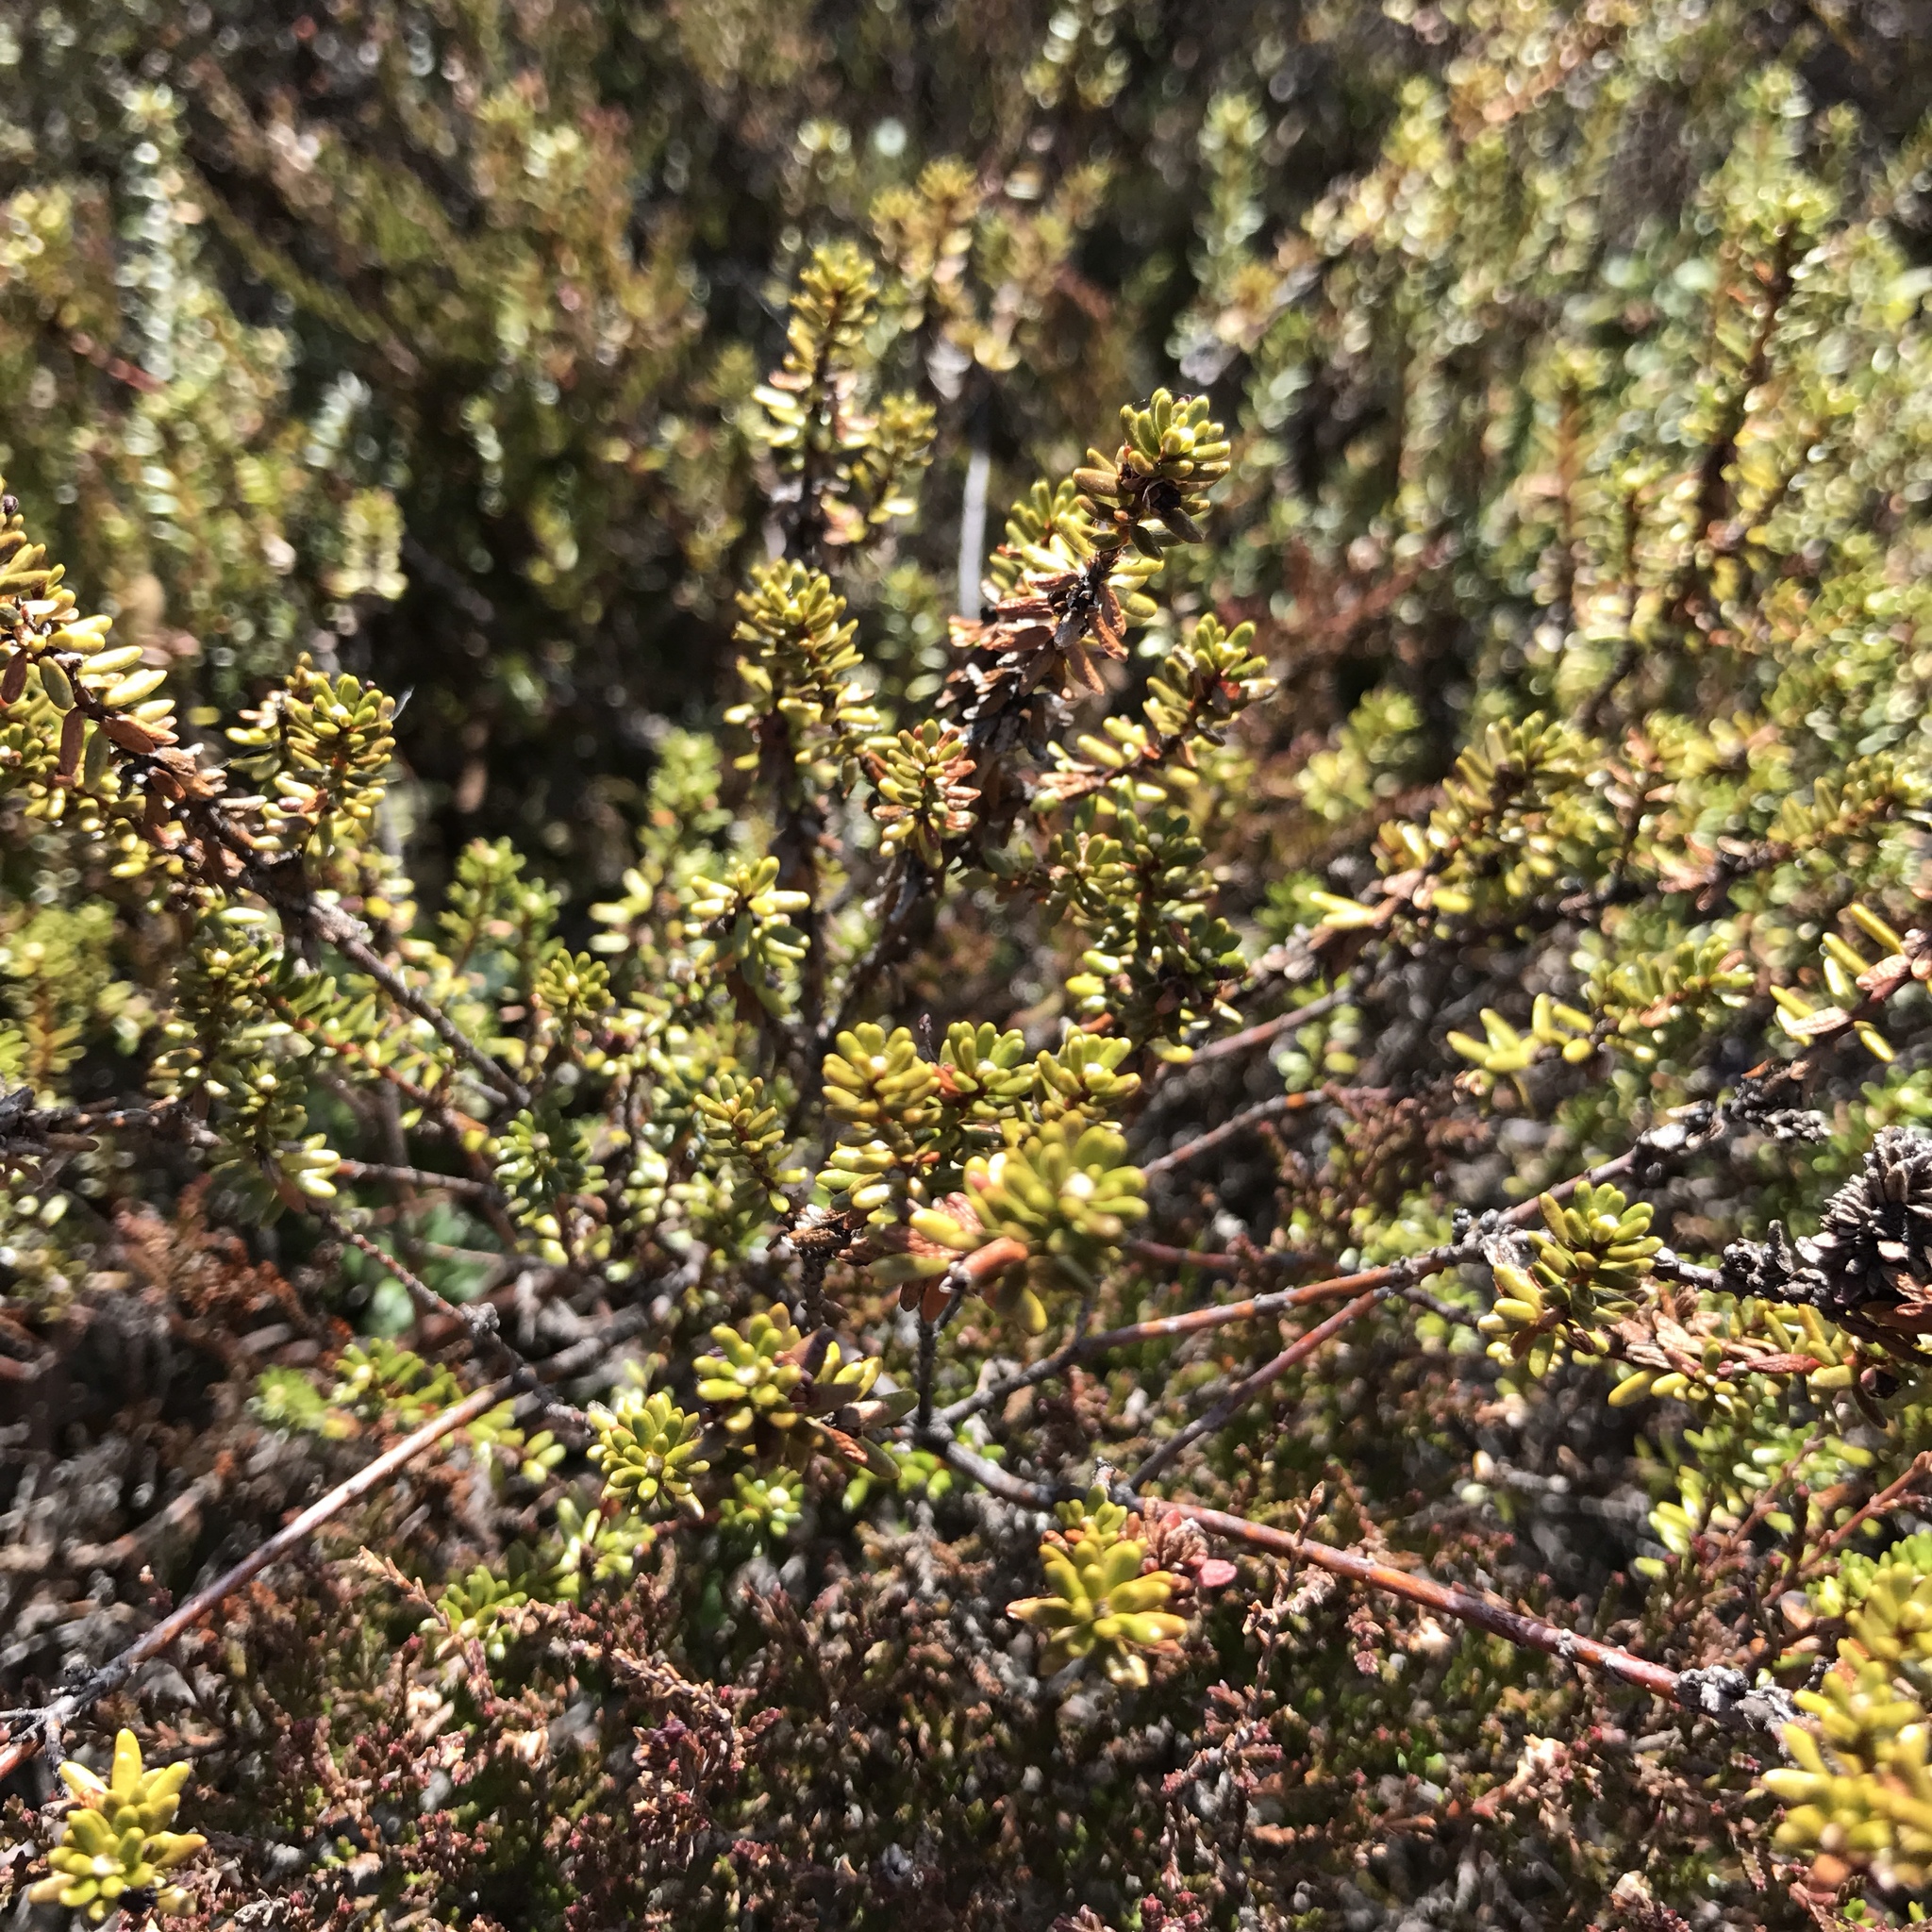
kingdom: Plantae
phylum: Tracheophyta
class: Magnoliopsida
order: Ericales
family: Ericaceae
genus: Empetrum
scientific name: Empetrum nigrum
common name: Black crowberry
